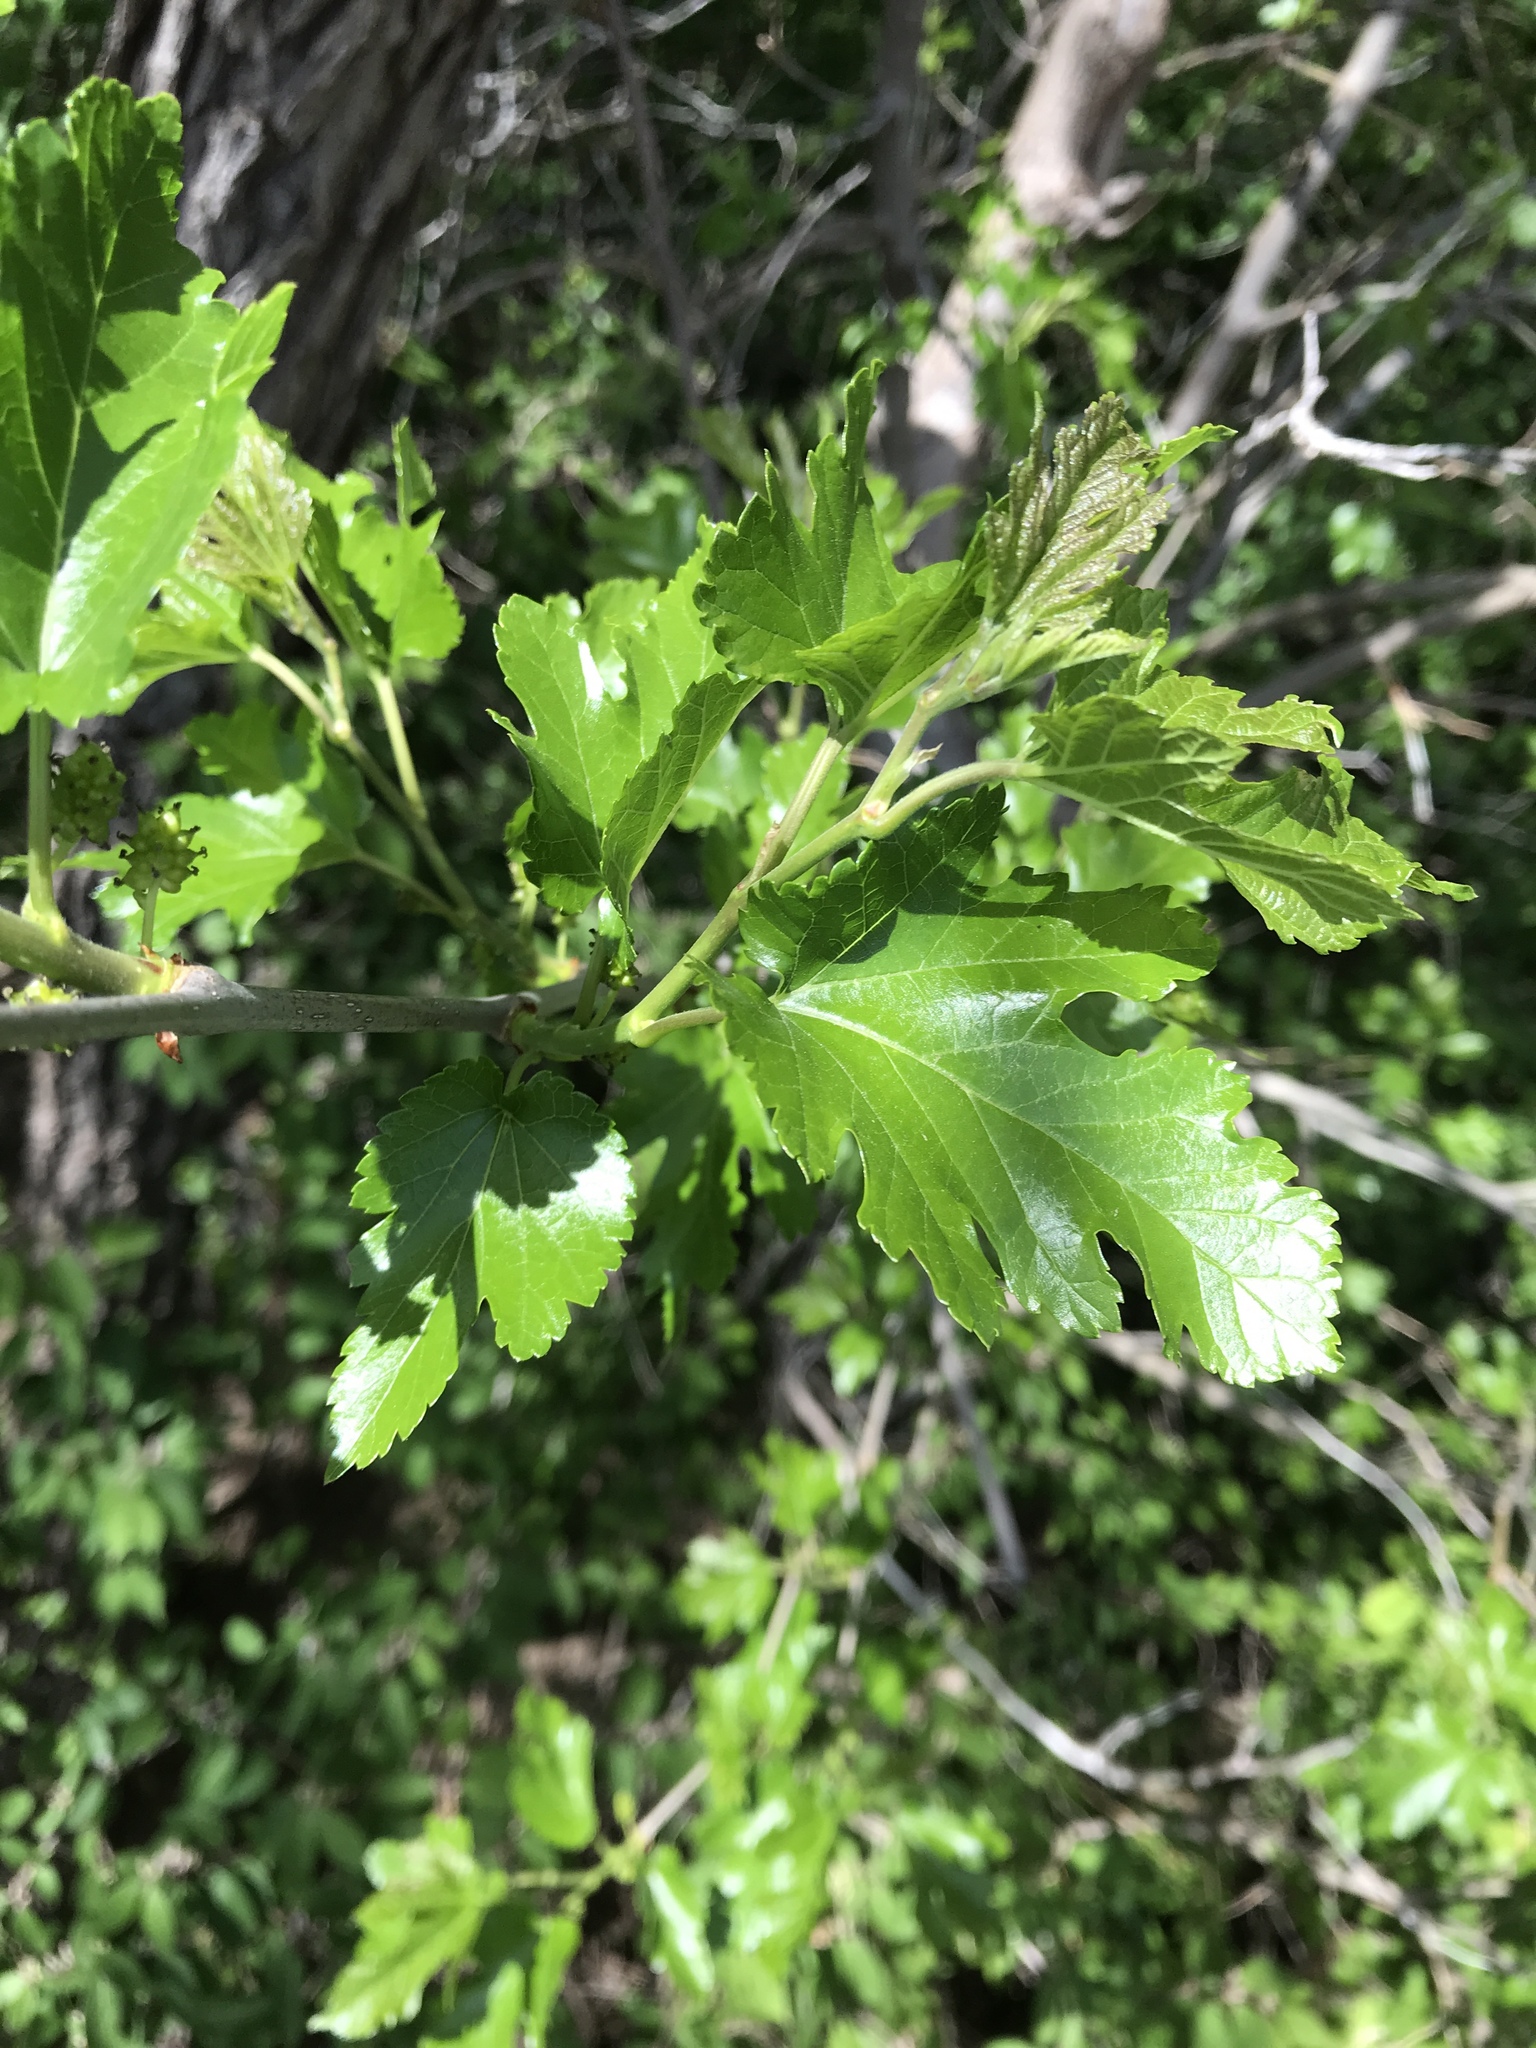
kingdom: Plantae
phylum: Tracheophyta
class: Magnoliopsida
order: Rosales
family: Moraceae
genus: Morus
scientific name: Morus alba
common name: White mulberry
